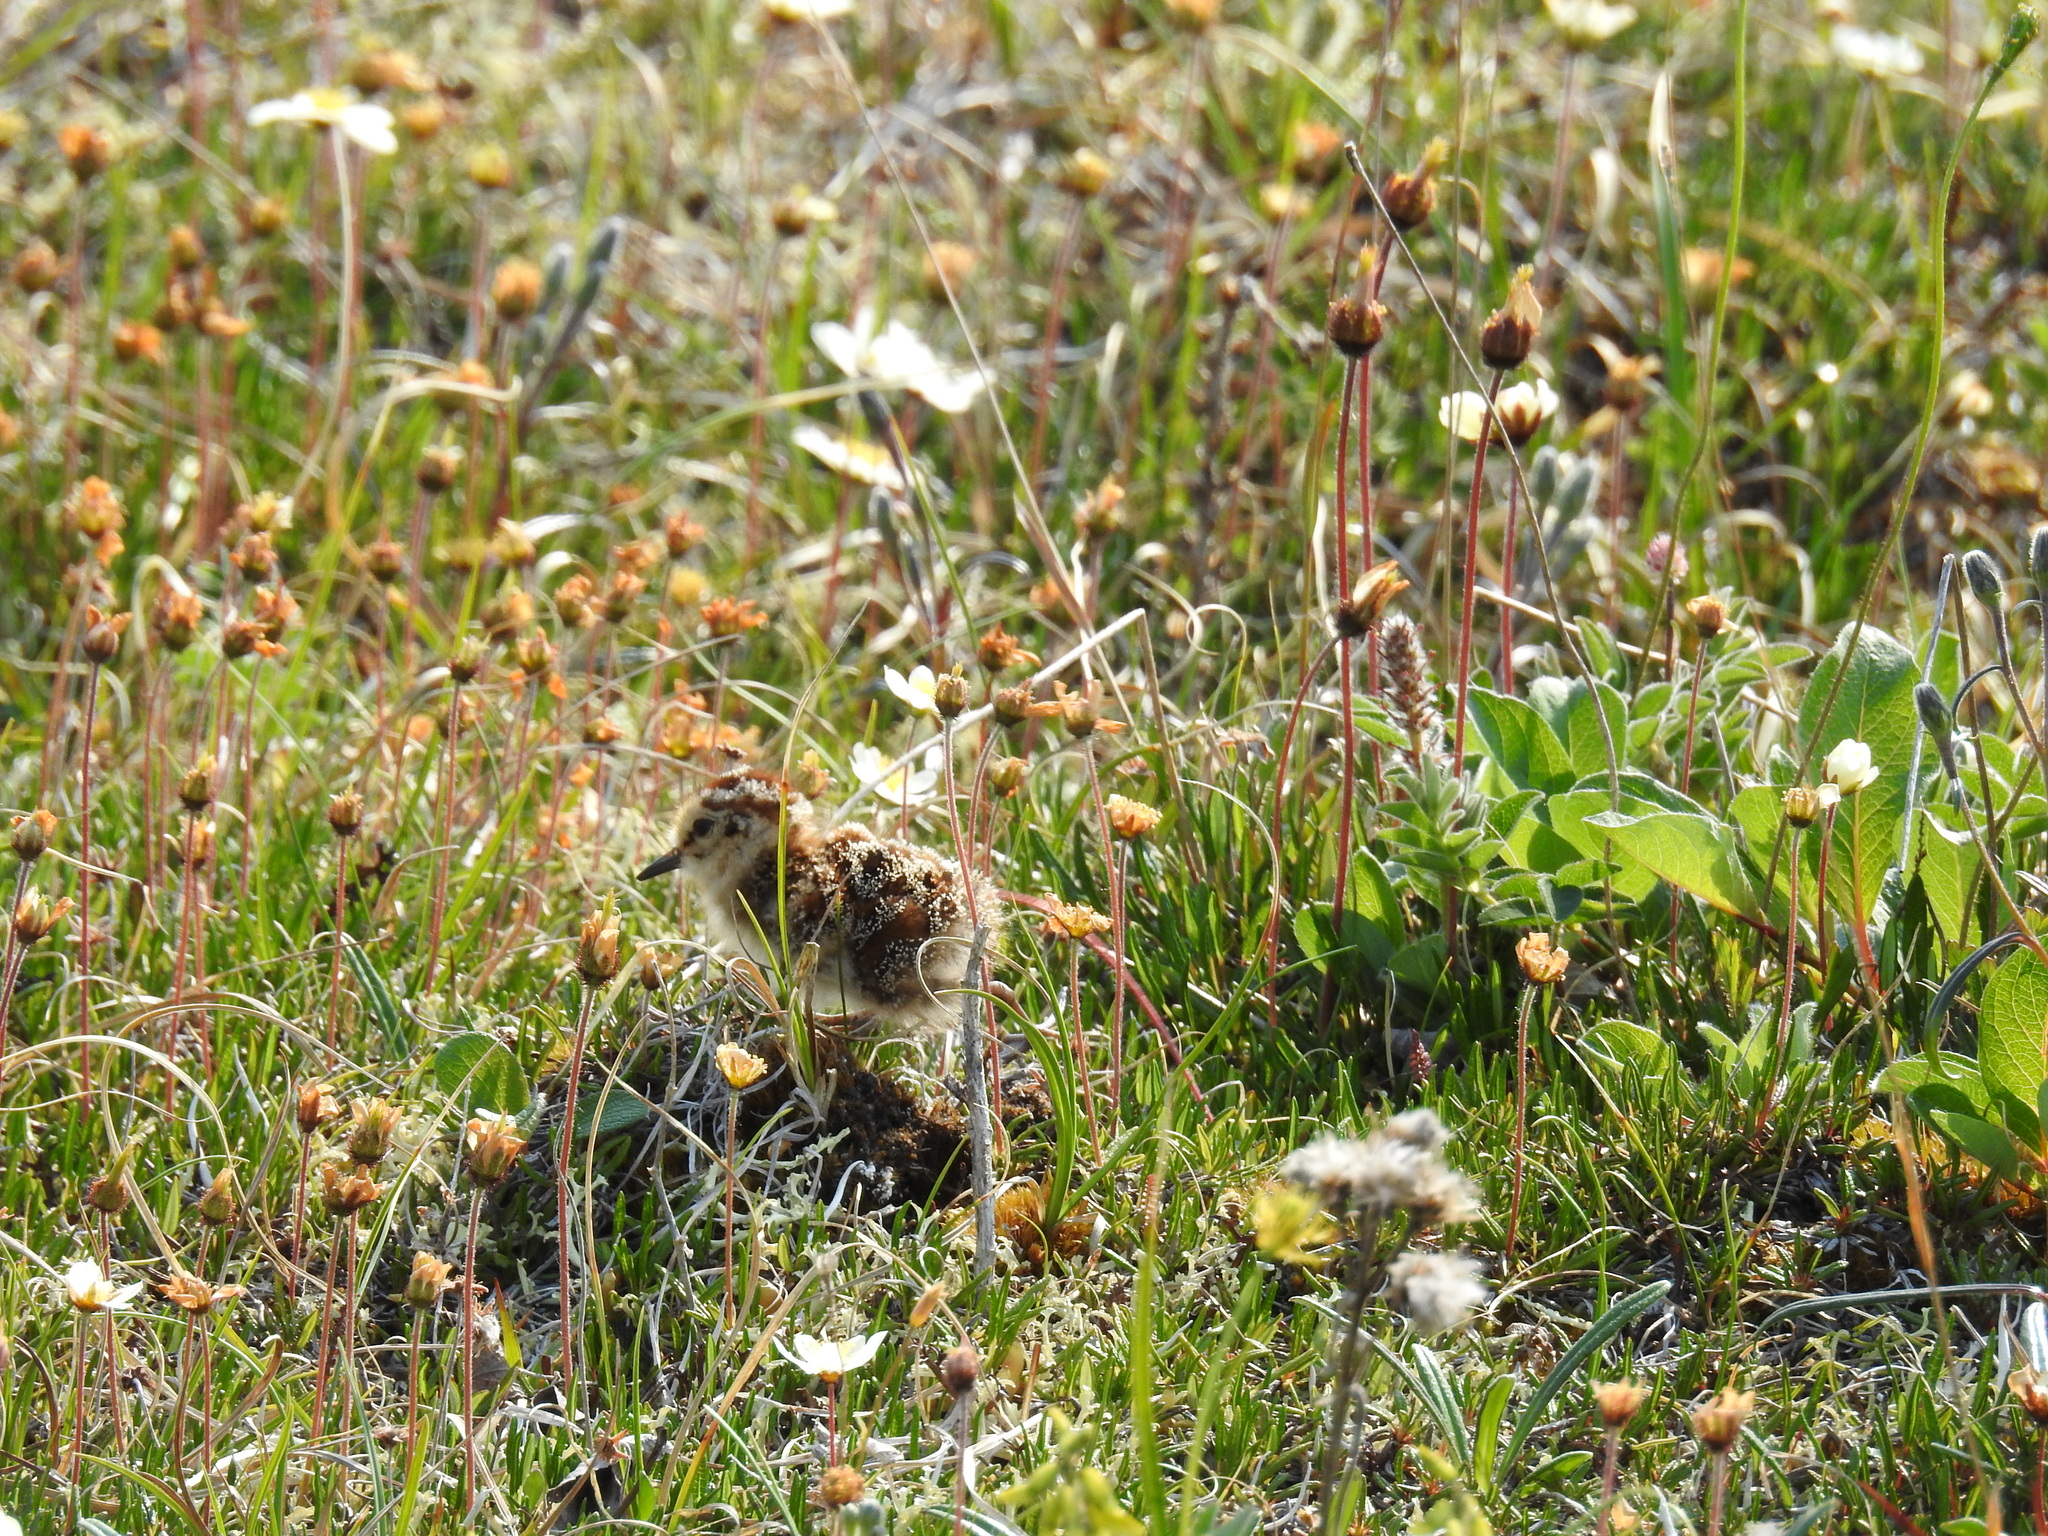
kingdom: Animalia
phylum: Chordata
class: Aves
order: Charadriiformes
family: Scolopacidae
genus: Calidris
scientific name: Calidris mauri
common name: Western sandpiper
